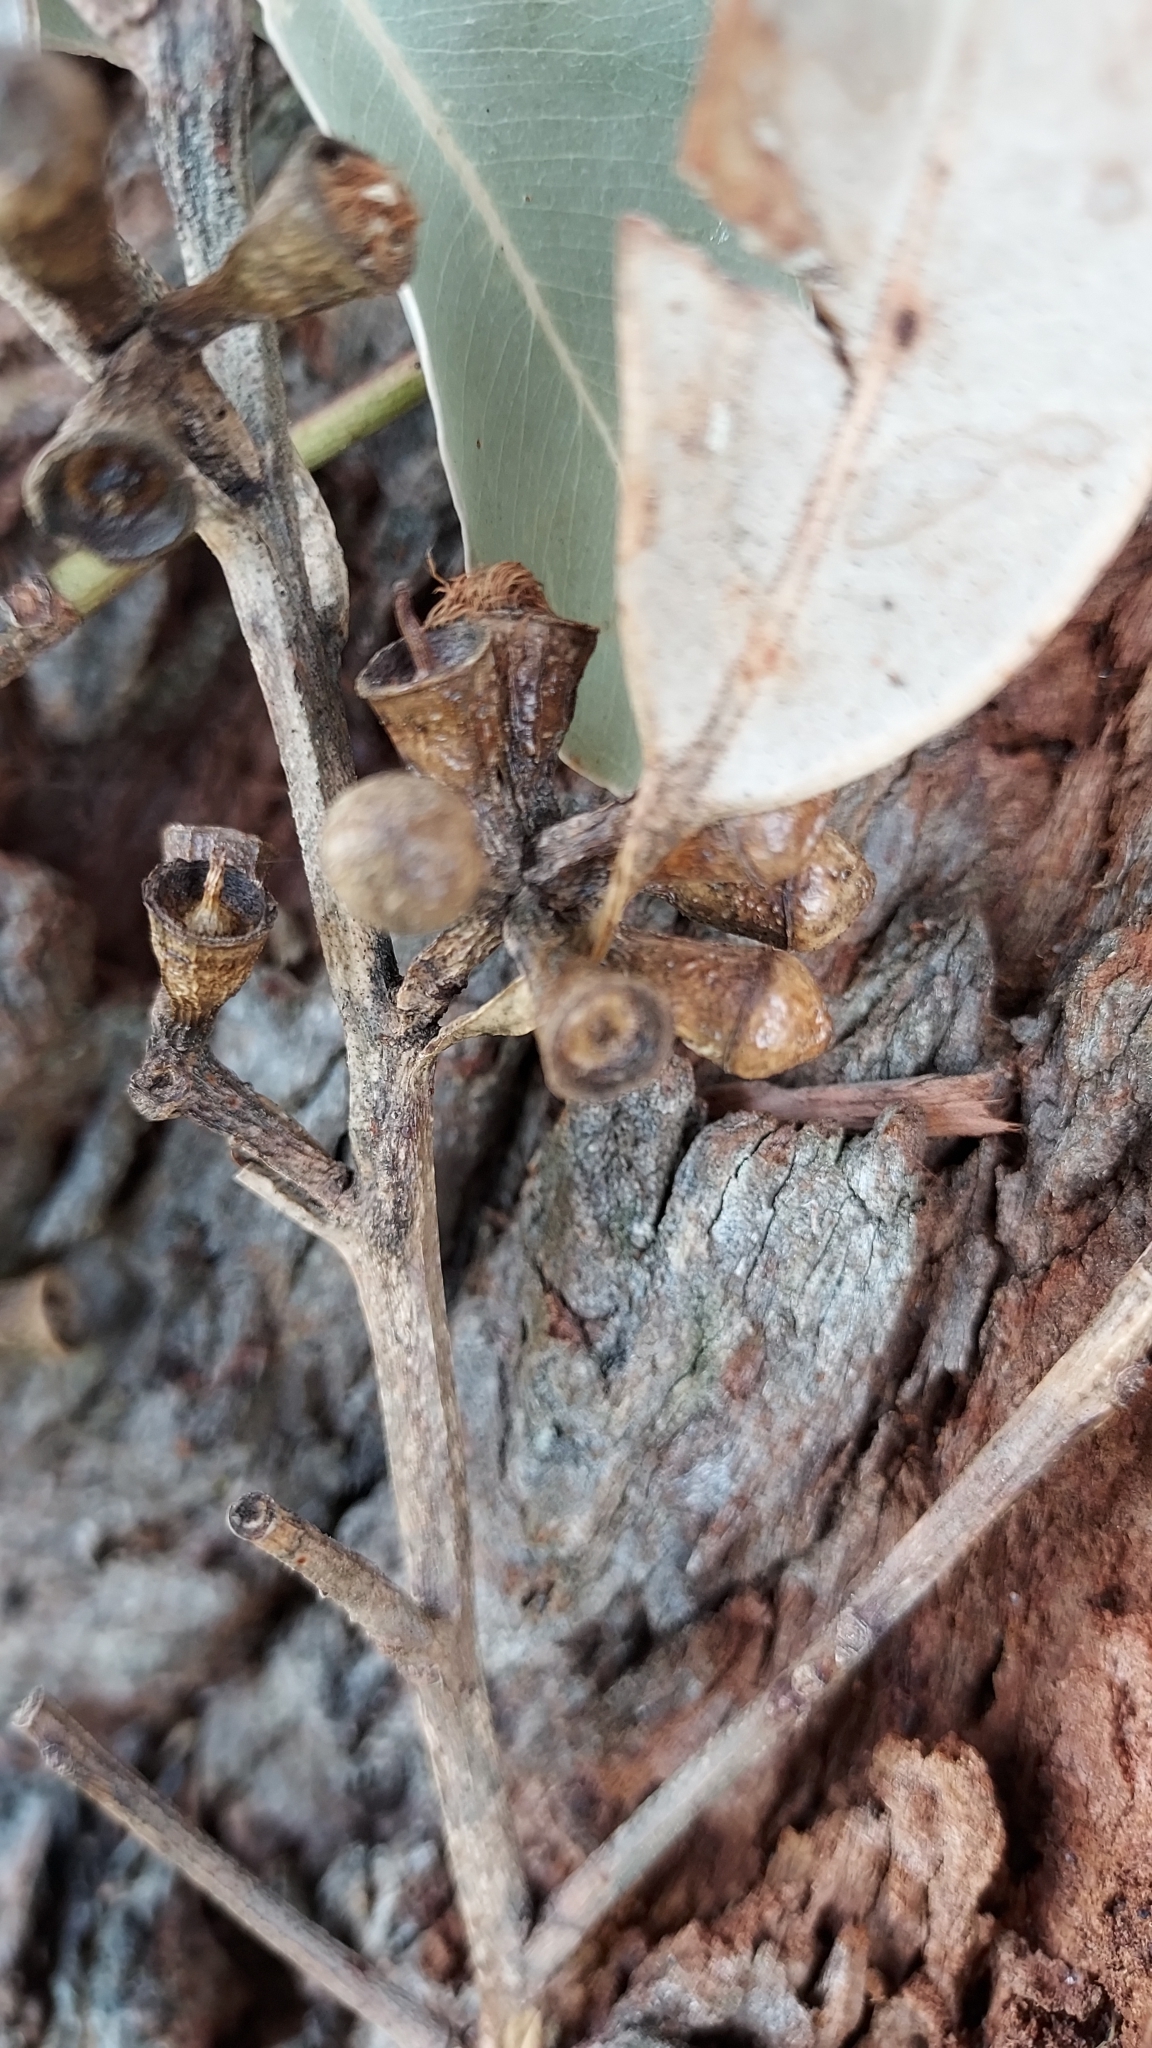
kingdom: Plantae
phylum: Tracheophyta
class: Magnoliopsida
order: Myrtales
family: Myrtaceae
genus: Eucalyptus
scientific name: Eucalyptus botryoides
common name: Bangalay
